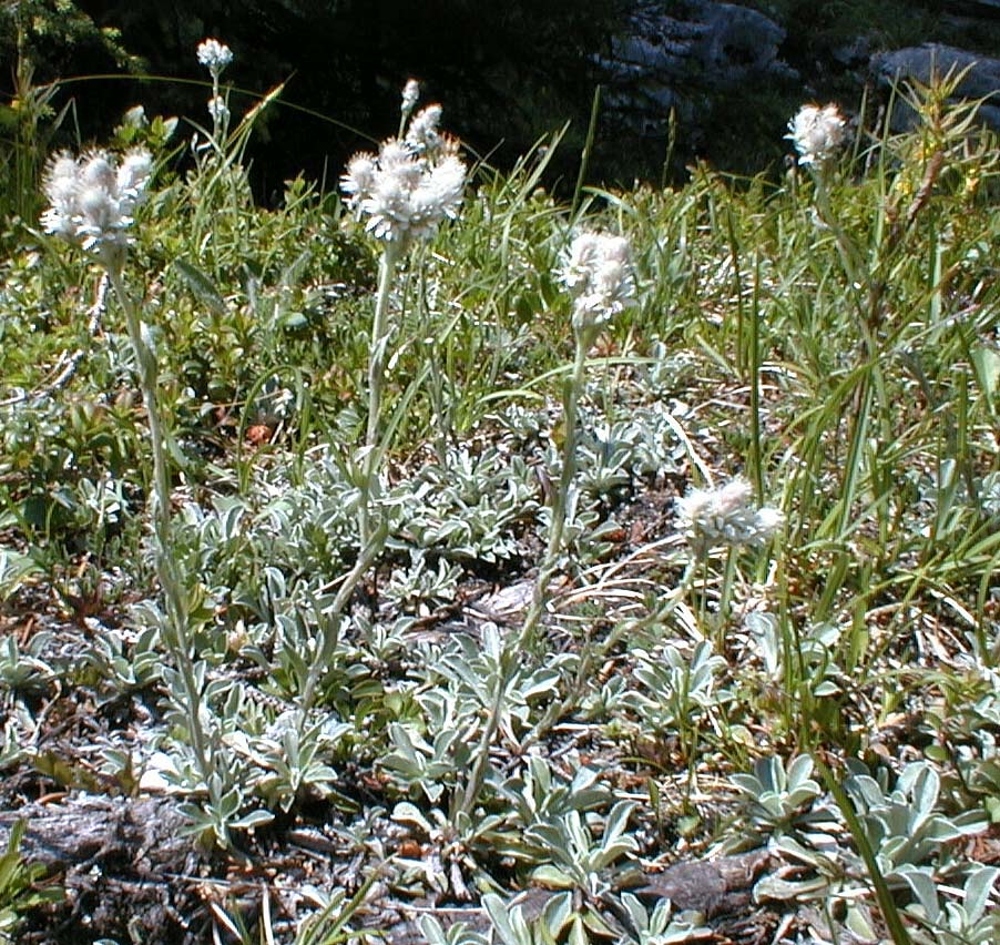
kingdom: Plantae
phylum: Tracheophyta
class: Magnoliopsida
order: Asterales
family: Asteraceae
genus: Antennaria
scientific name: Antennaria dioica
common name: Mountain everlasting
